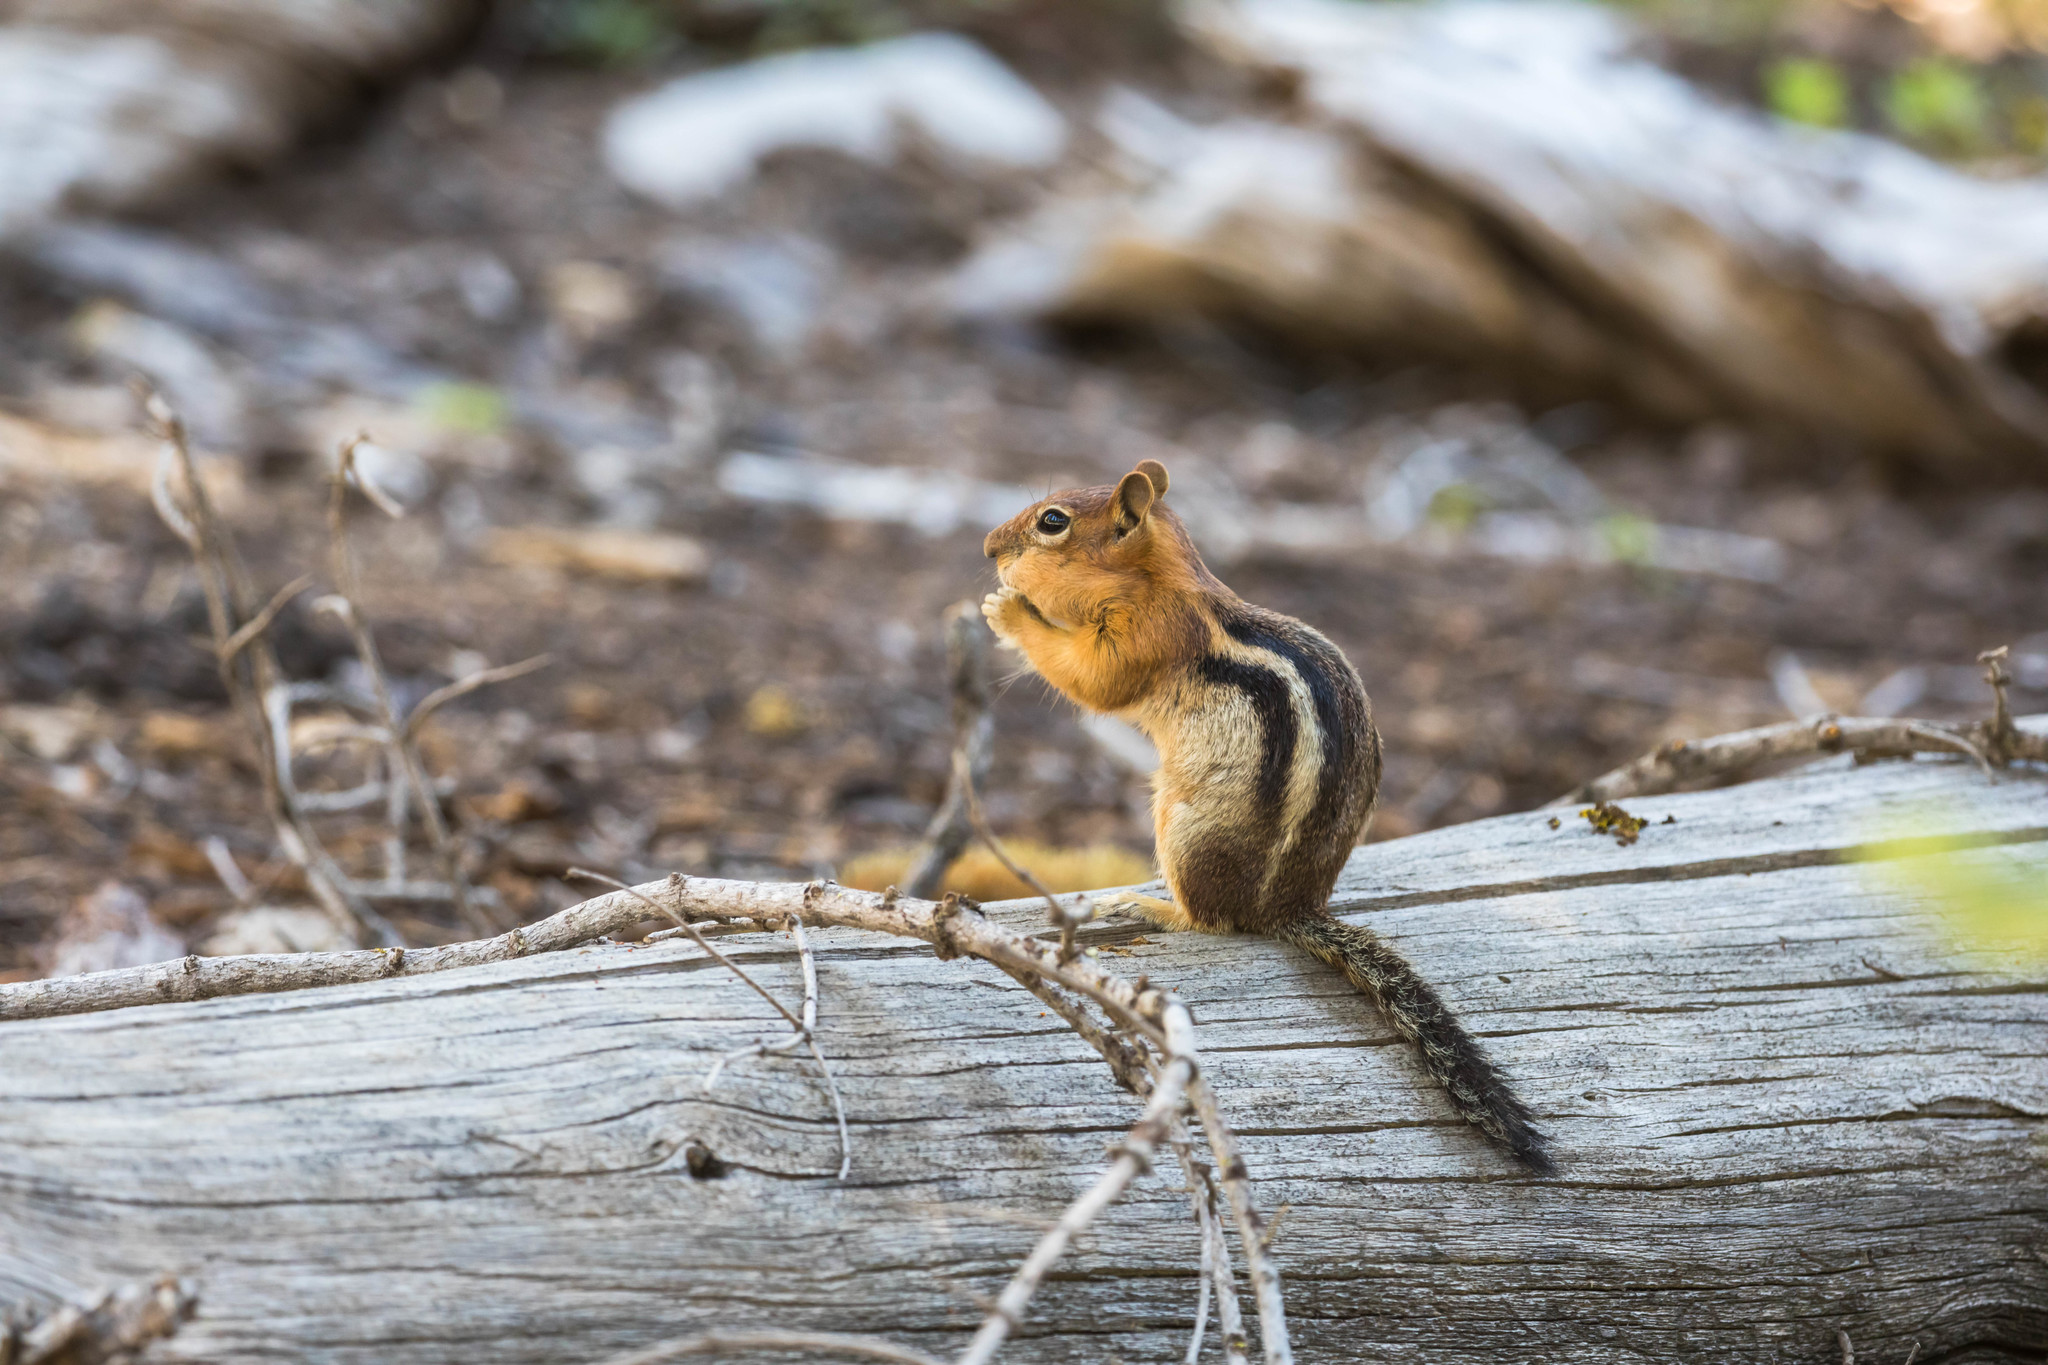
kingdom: Animalia
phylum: Chordata
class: Mammalia
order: Rodentia
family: Sciuridae
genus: Callospermophilus
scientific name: Callospermophilus lateralis
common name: Golden-mantled ground squirrel
